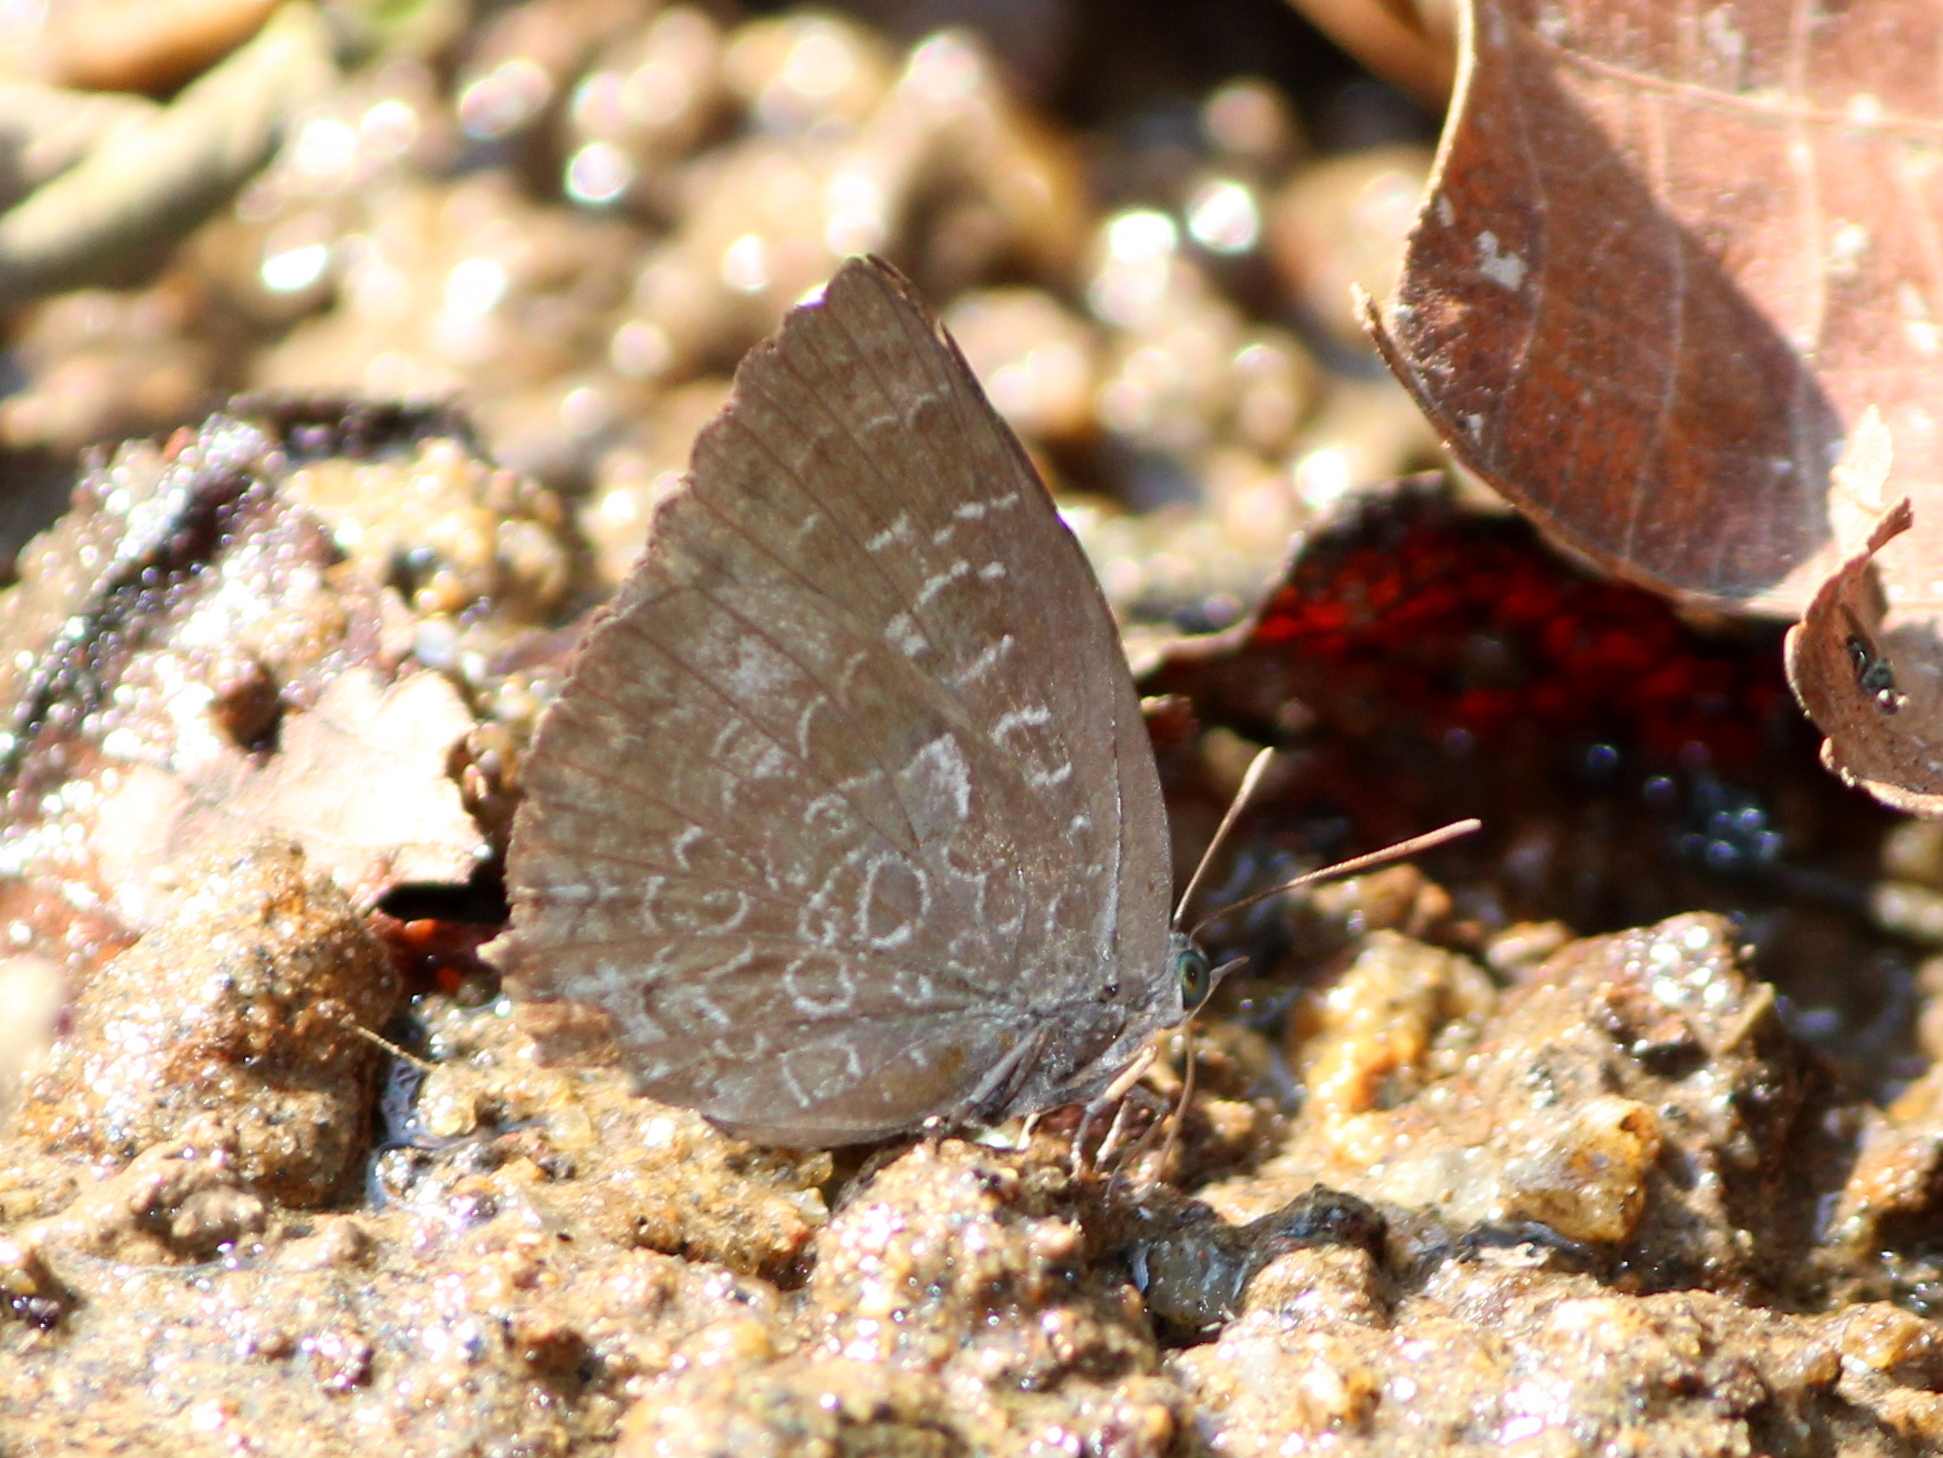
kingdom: Animalia
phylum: Arthropoda
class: Insecta
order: Lepidoptera
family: Lycaenidae
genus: Arhopala
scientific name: Arhopala bazaloides
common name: Tamil oakblue
